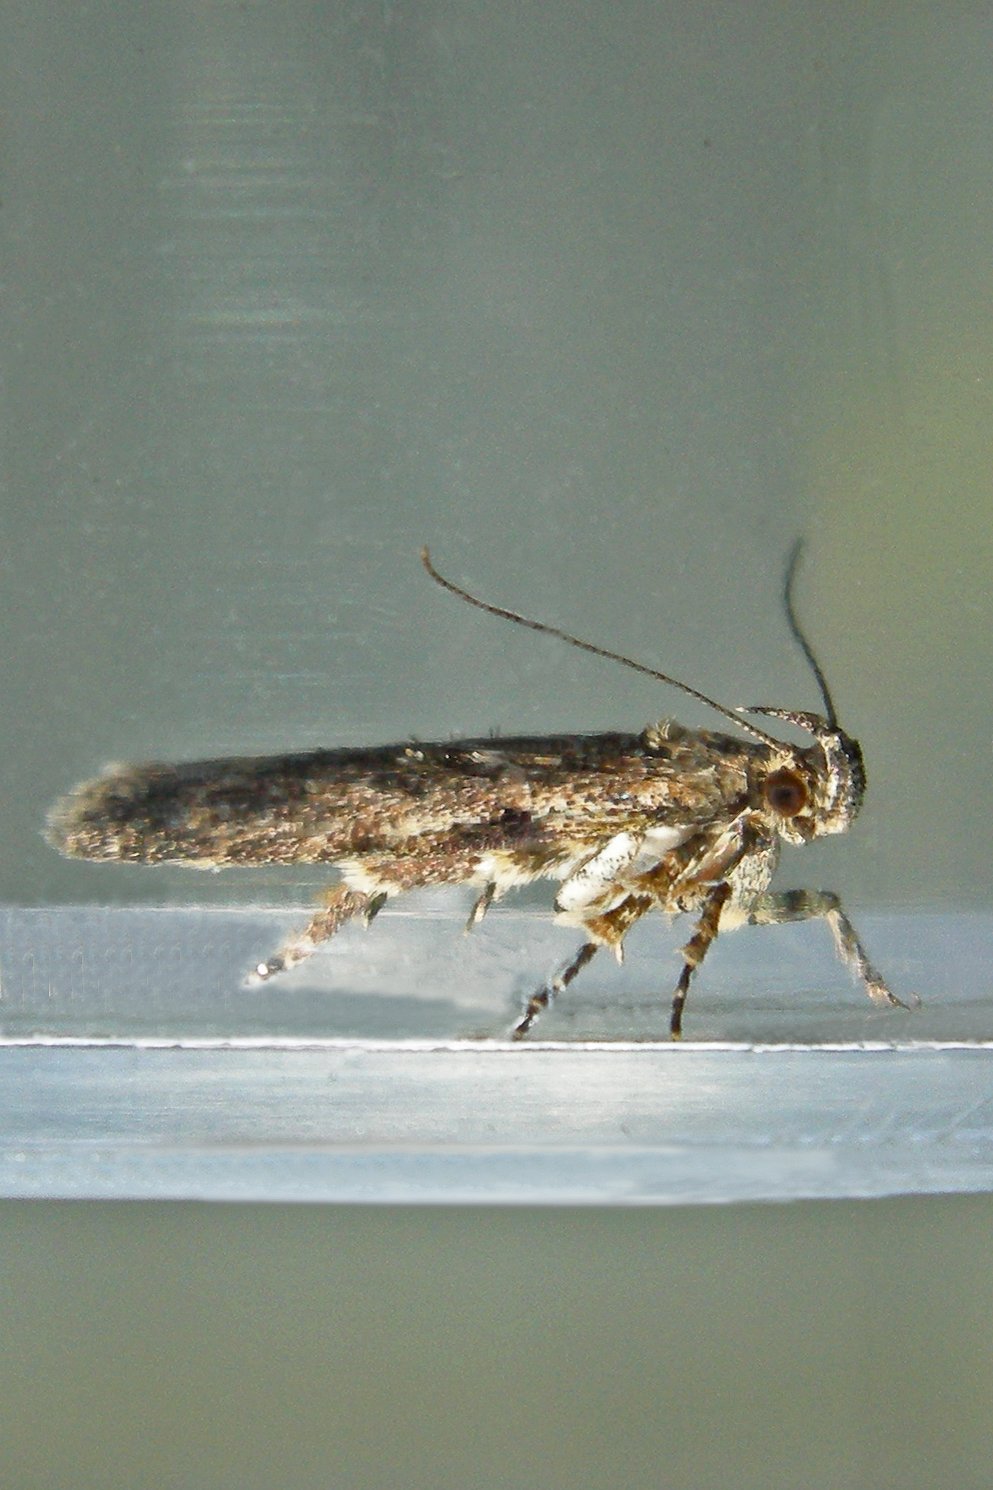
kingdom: Animalia
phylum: Arthropoda
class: Insecta
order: Lepidoptera
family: Gelechiidae
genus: Chionodes
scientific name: Chionodes pereyra
